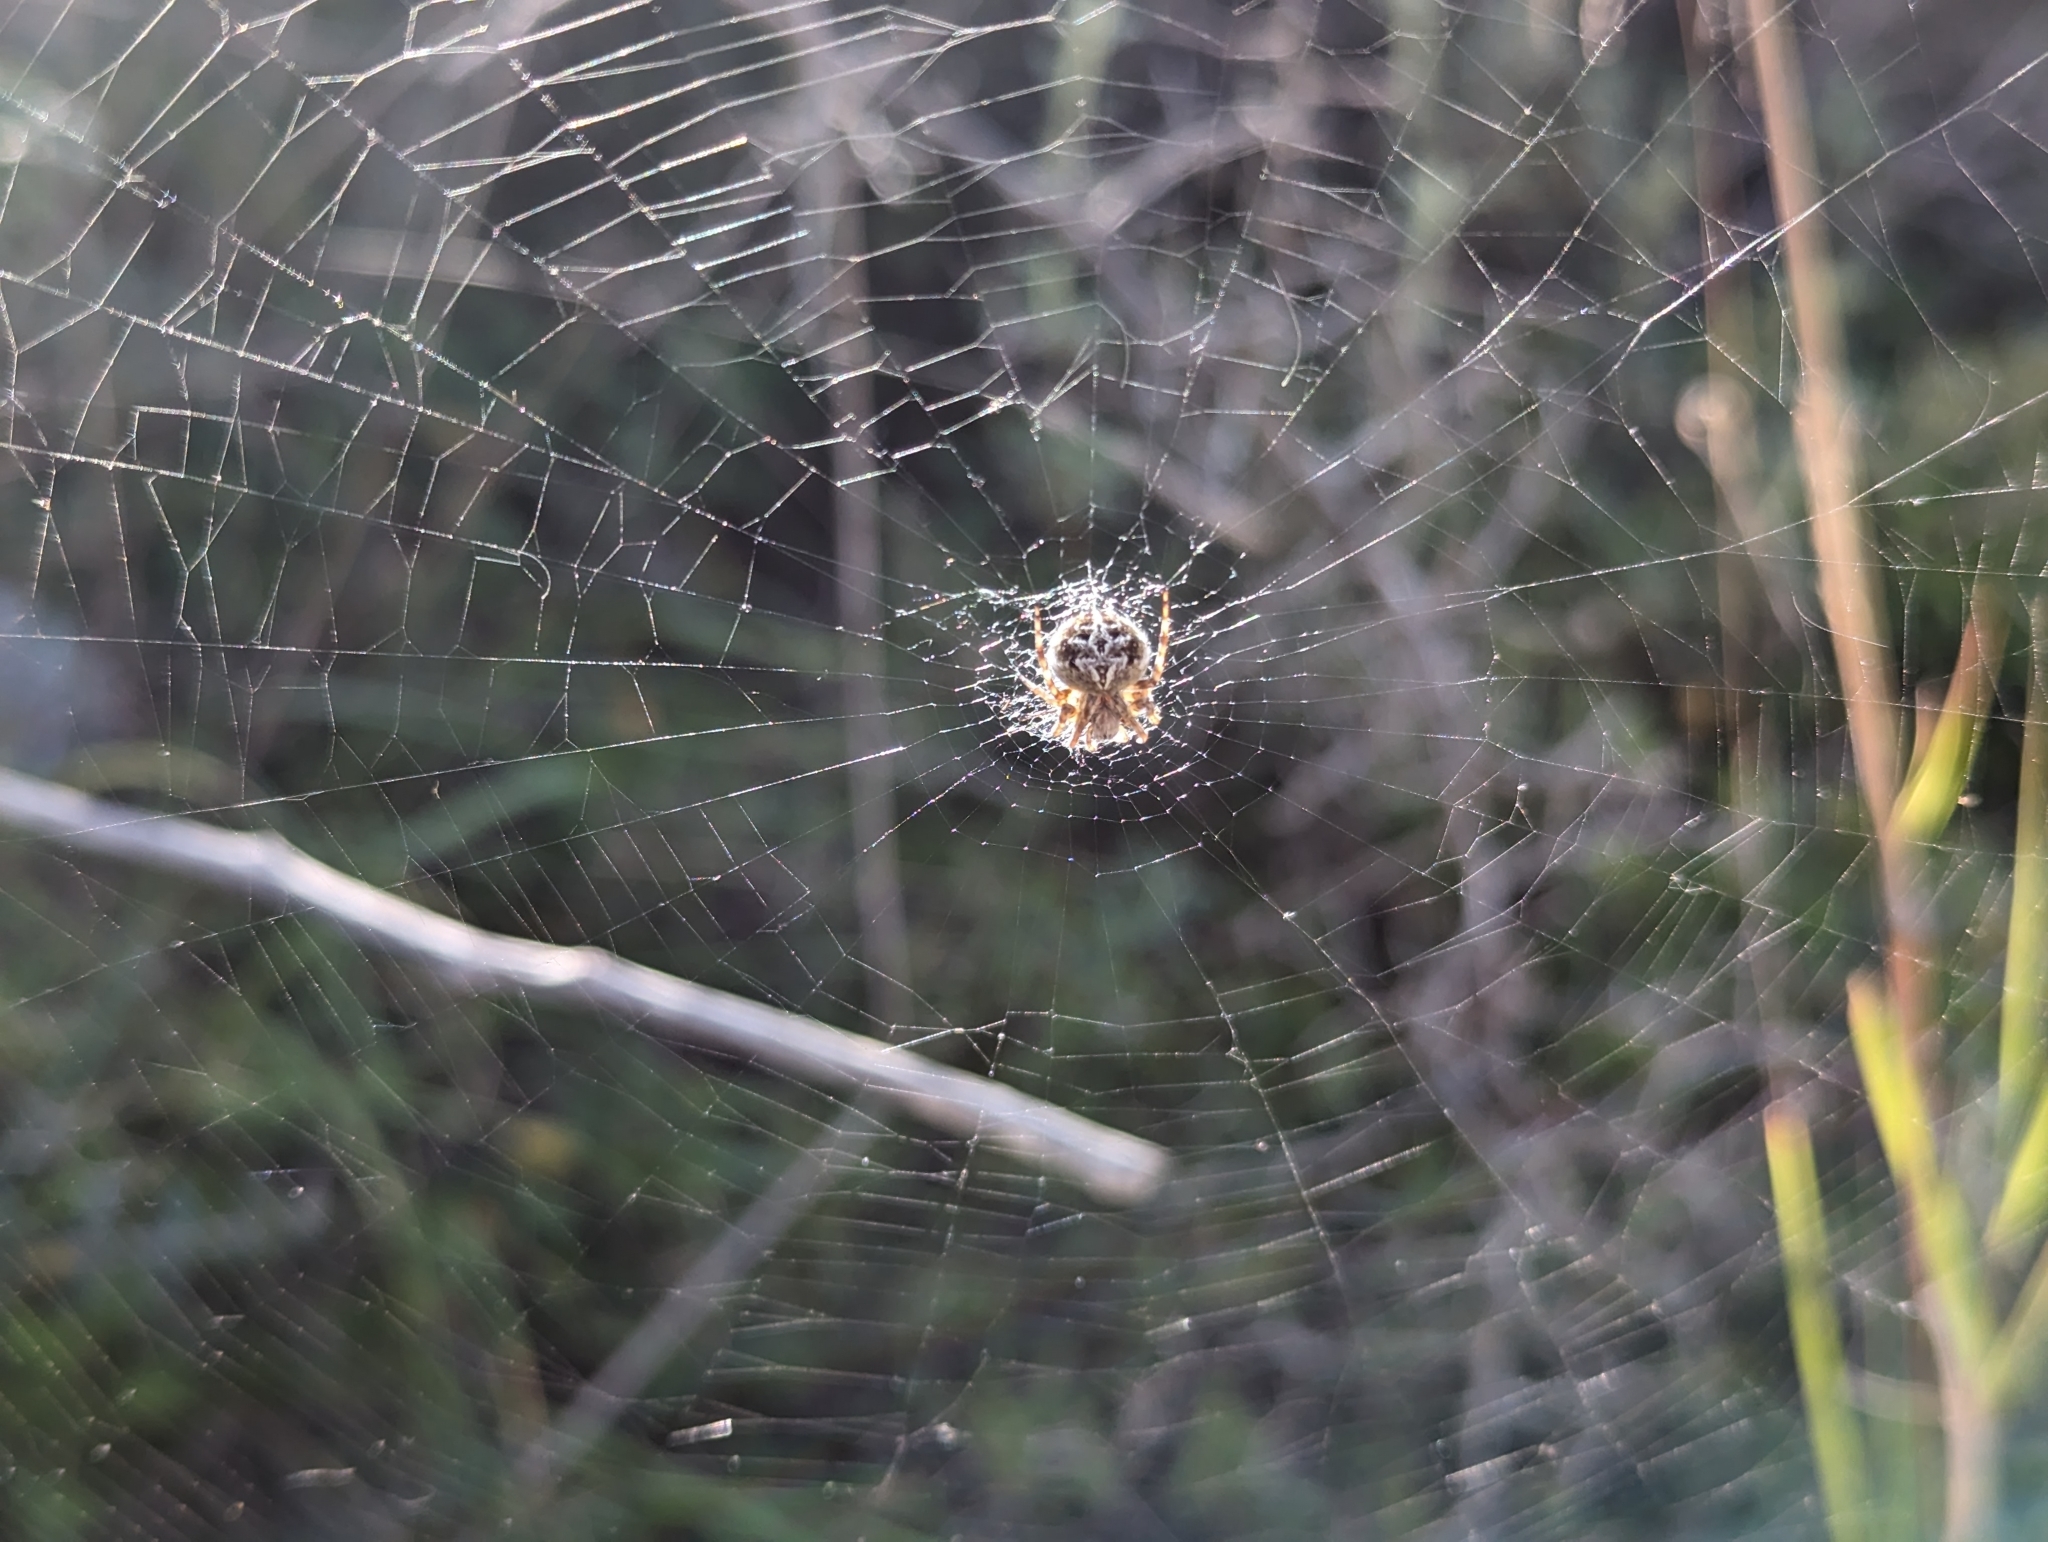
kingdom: Animalia
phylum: Arthropoda
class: Arachnida
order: Araneae
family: Araneidae
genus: Agalenatea
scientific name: Agalenatea redii
